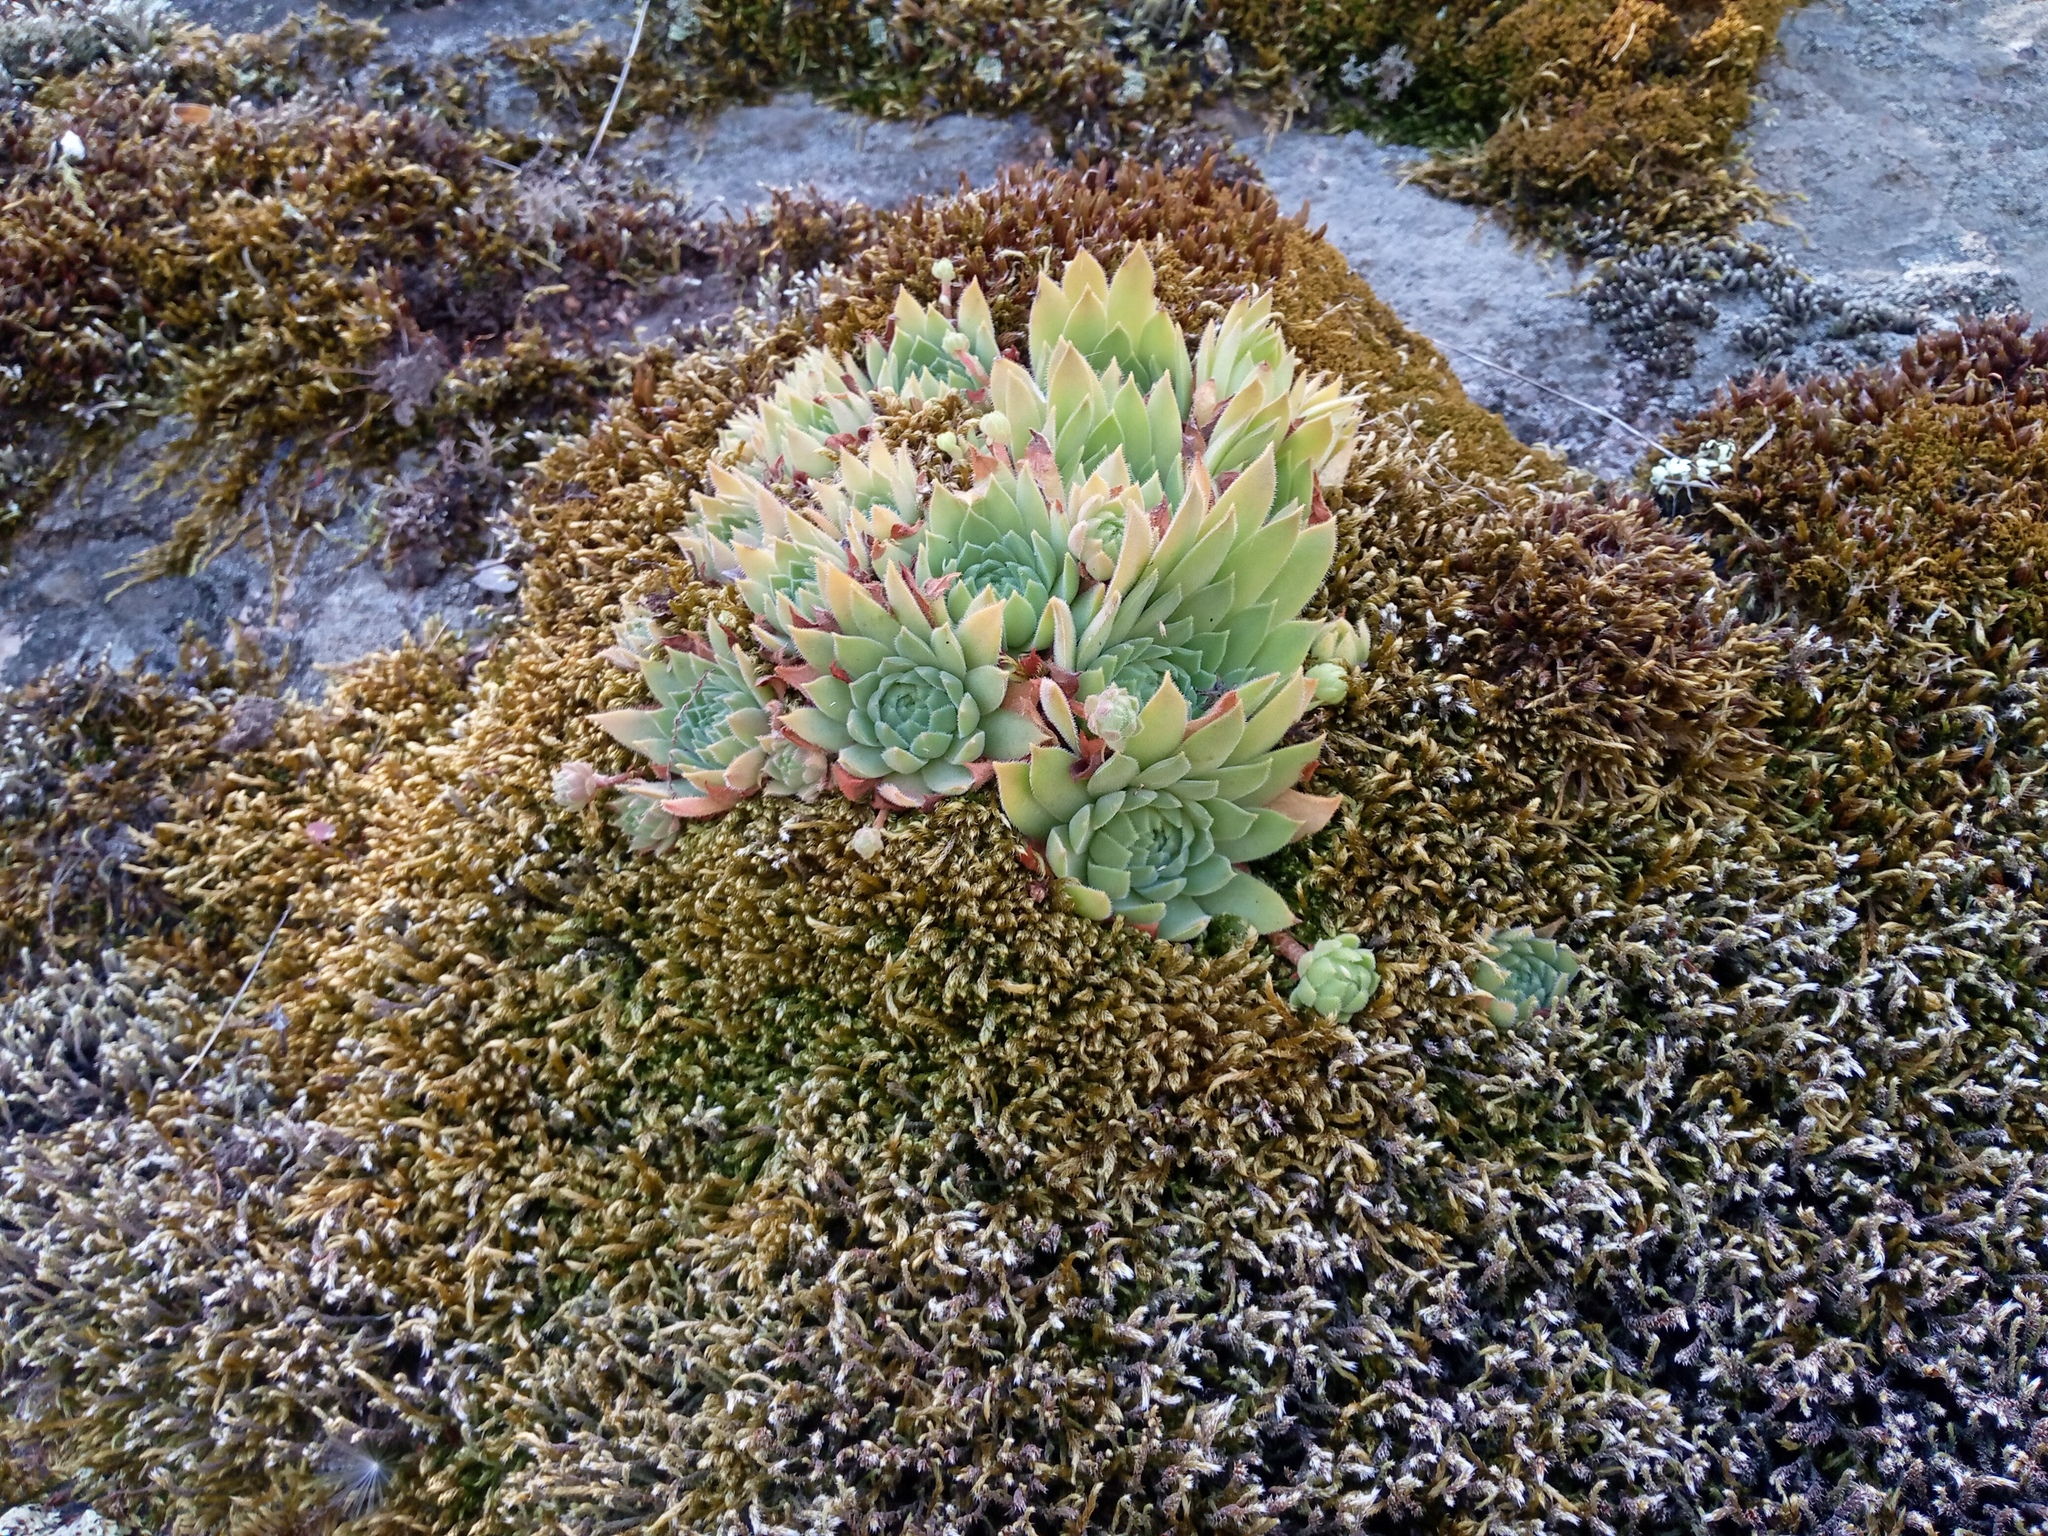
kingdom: Plantae
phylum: Tracheophyta
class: Magnoliopsida
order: Saxifragales
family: Crassulaceae
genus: Sempervivum
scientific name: Sempervivum ruthenicum
